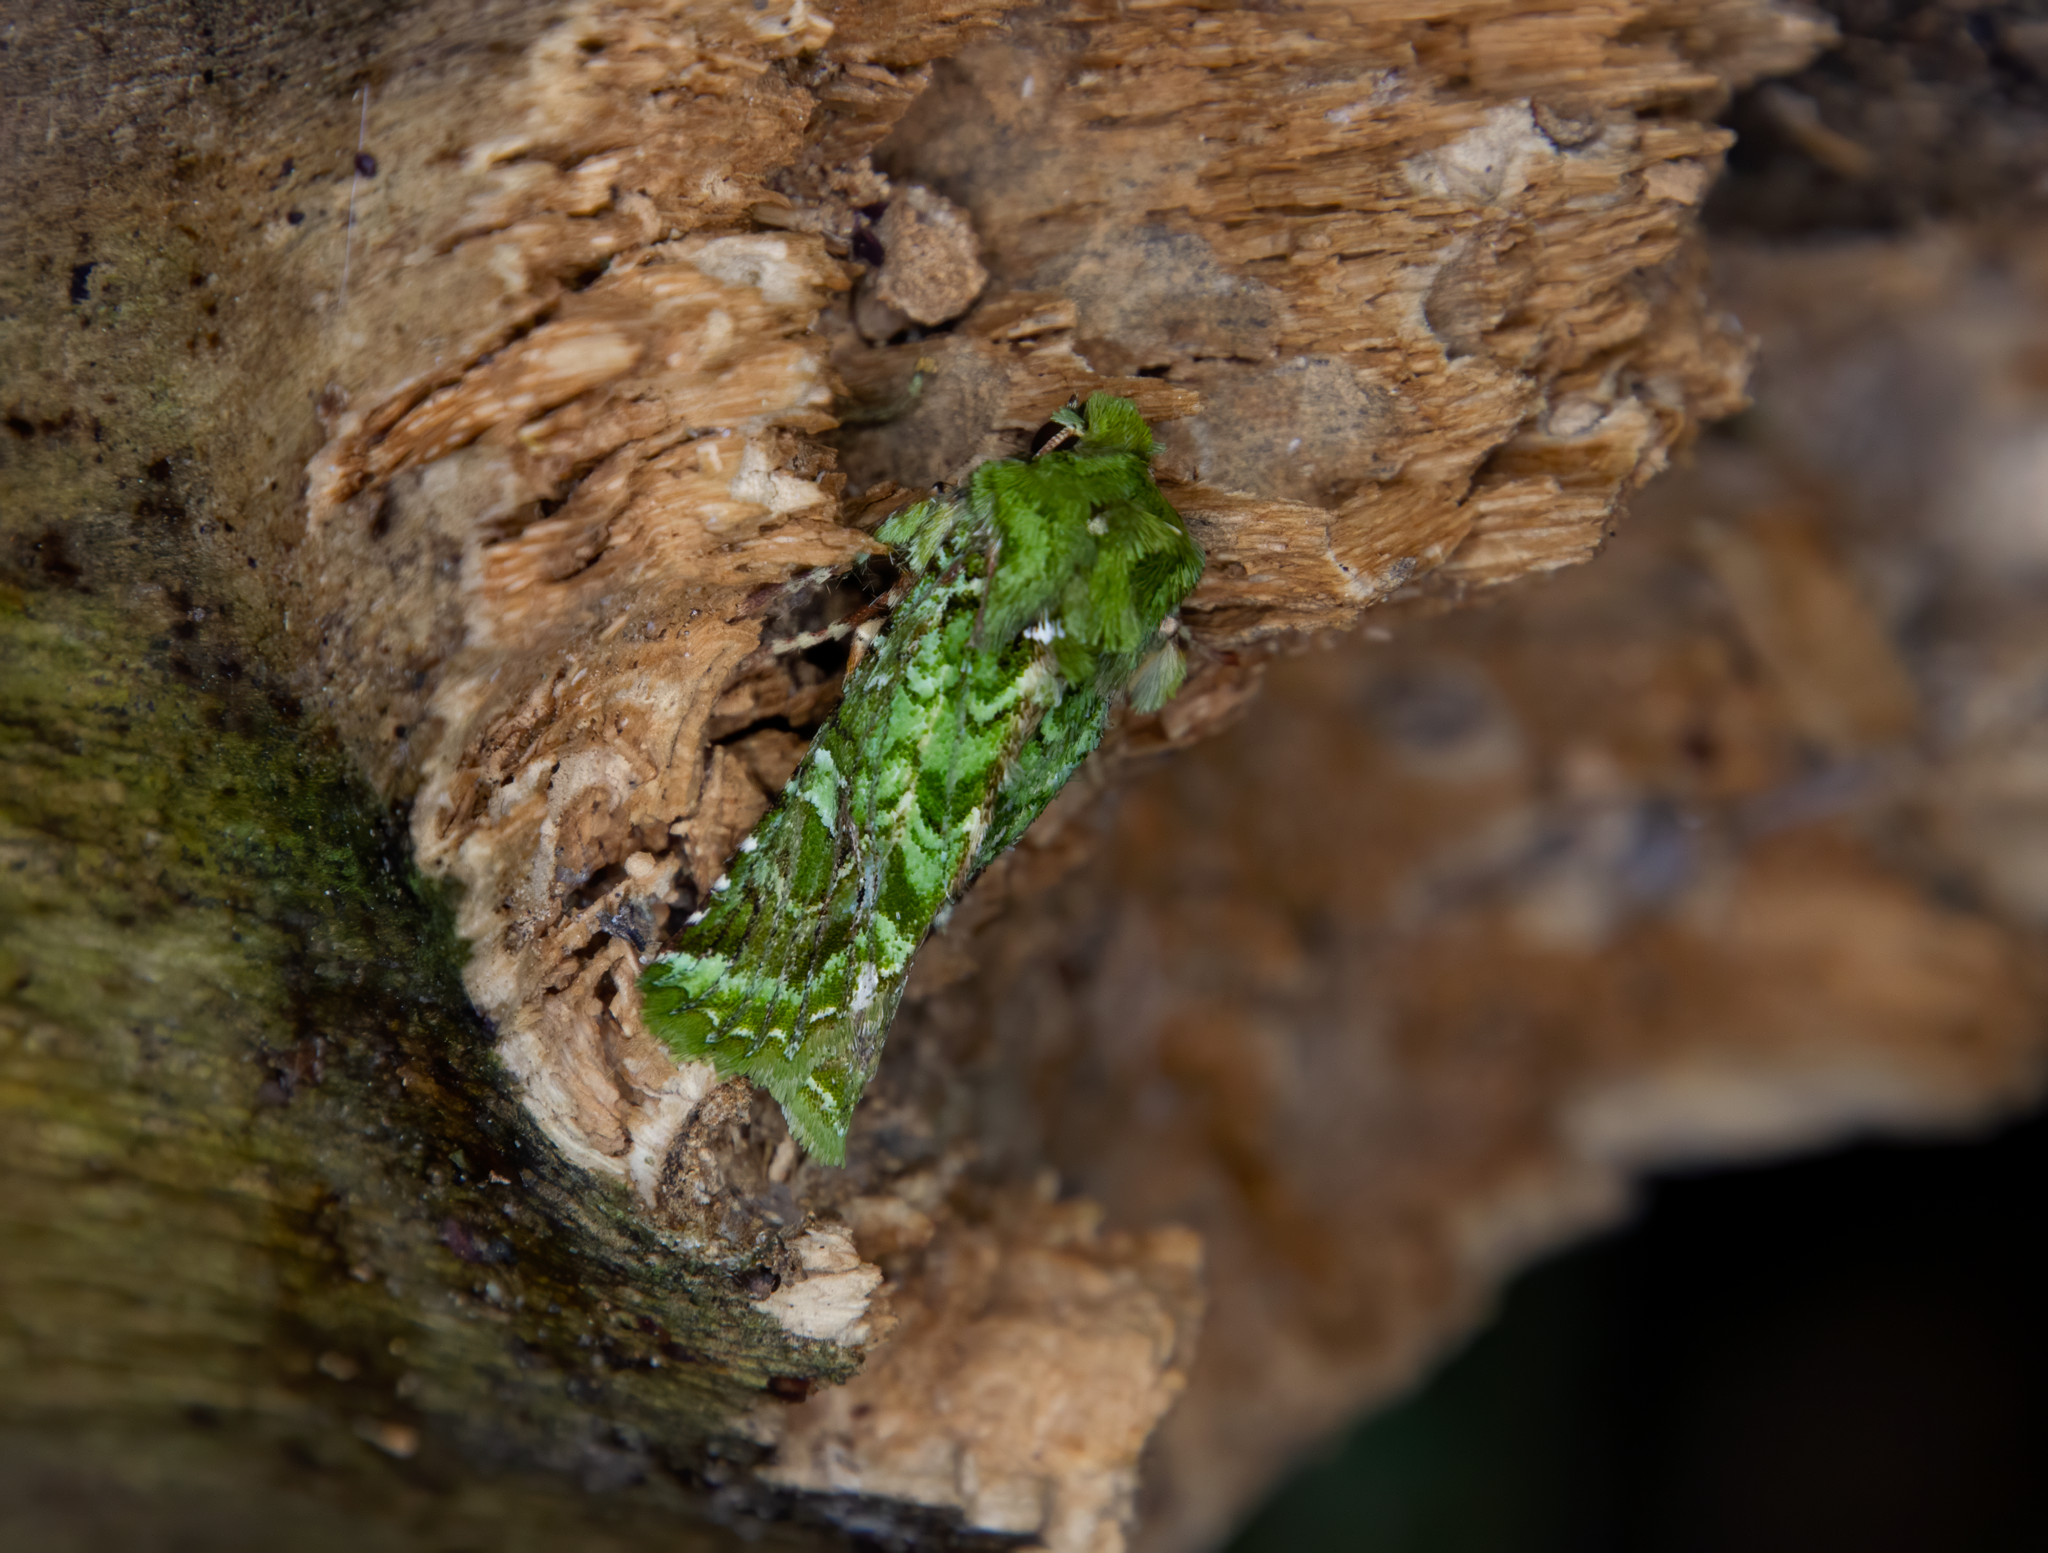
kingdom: Animalia
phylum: Arthropoda
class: Insecta
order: Lepidoptera
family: Noctuidae
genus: Feredayia
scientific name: Feredayia grammosa
